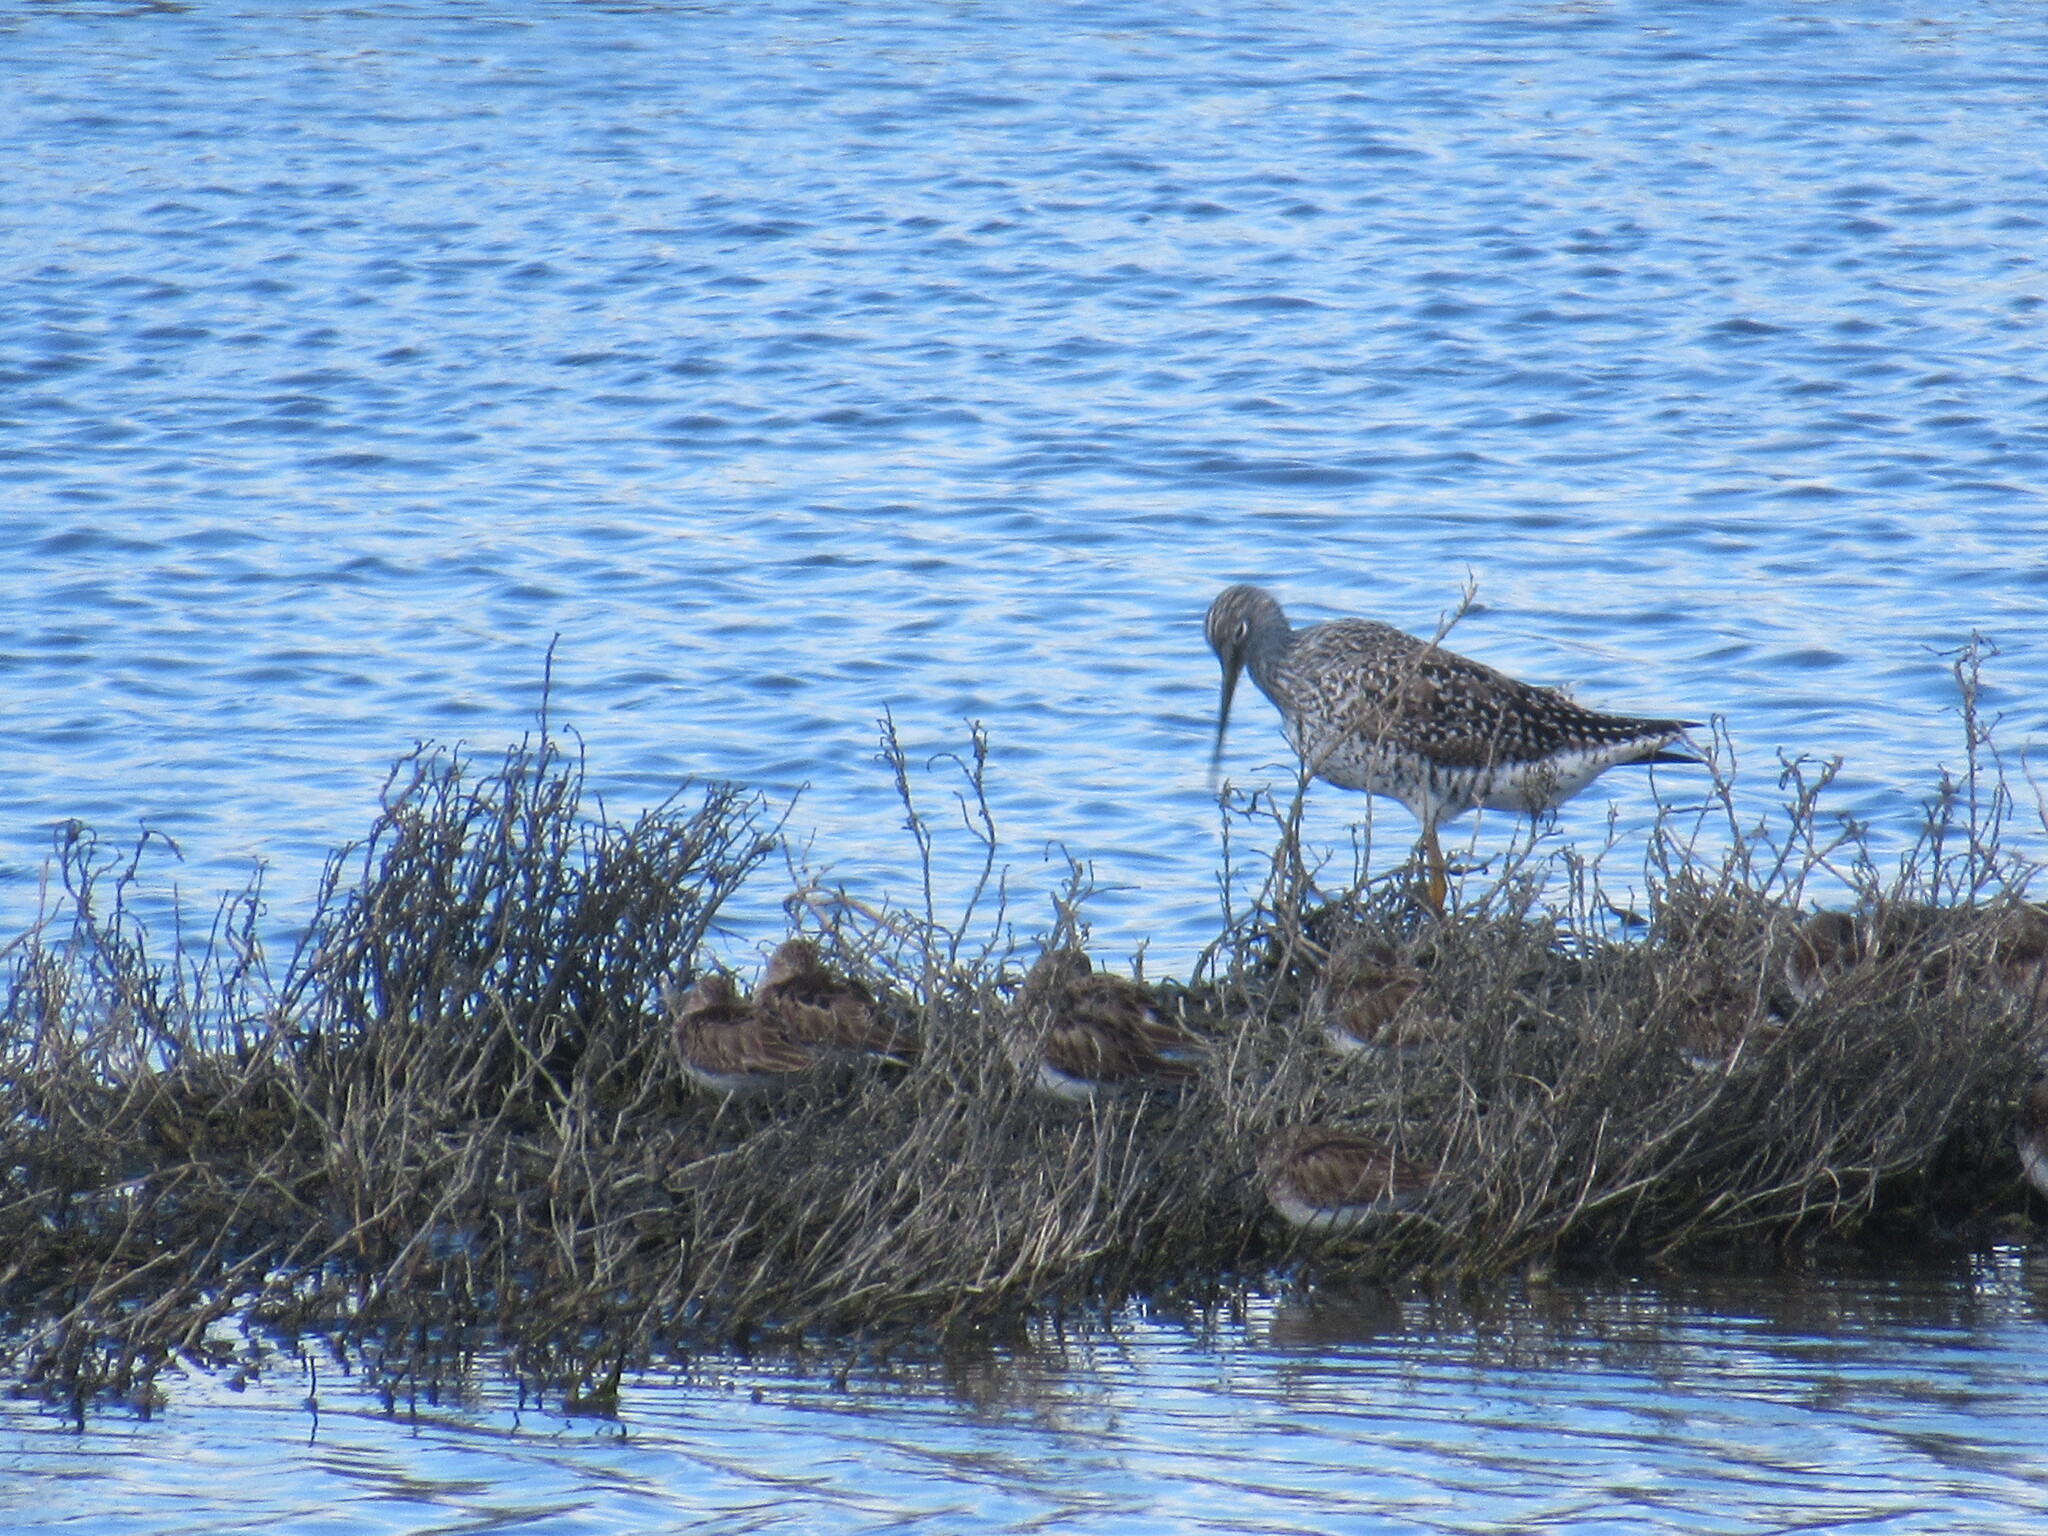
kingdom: Animalia
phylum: Chordata
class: Aves
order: Charadriiformes
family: Scolopacidae
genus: Tringa
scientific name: Tringa melanoleuca
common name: Greater yellowlegs
